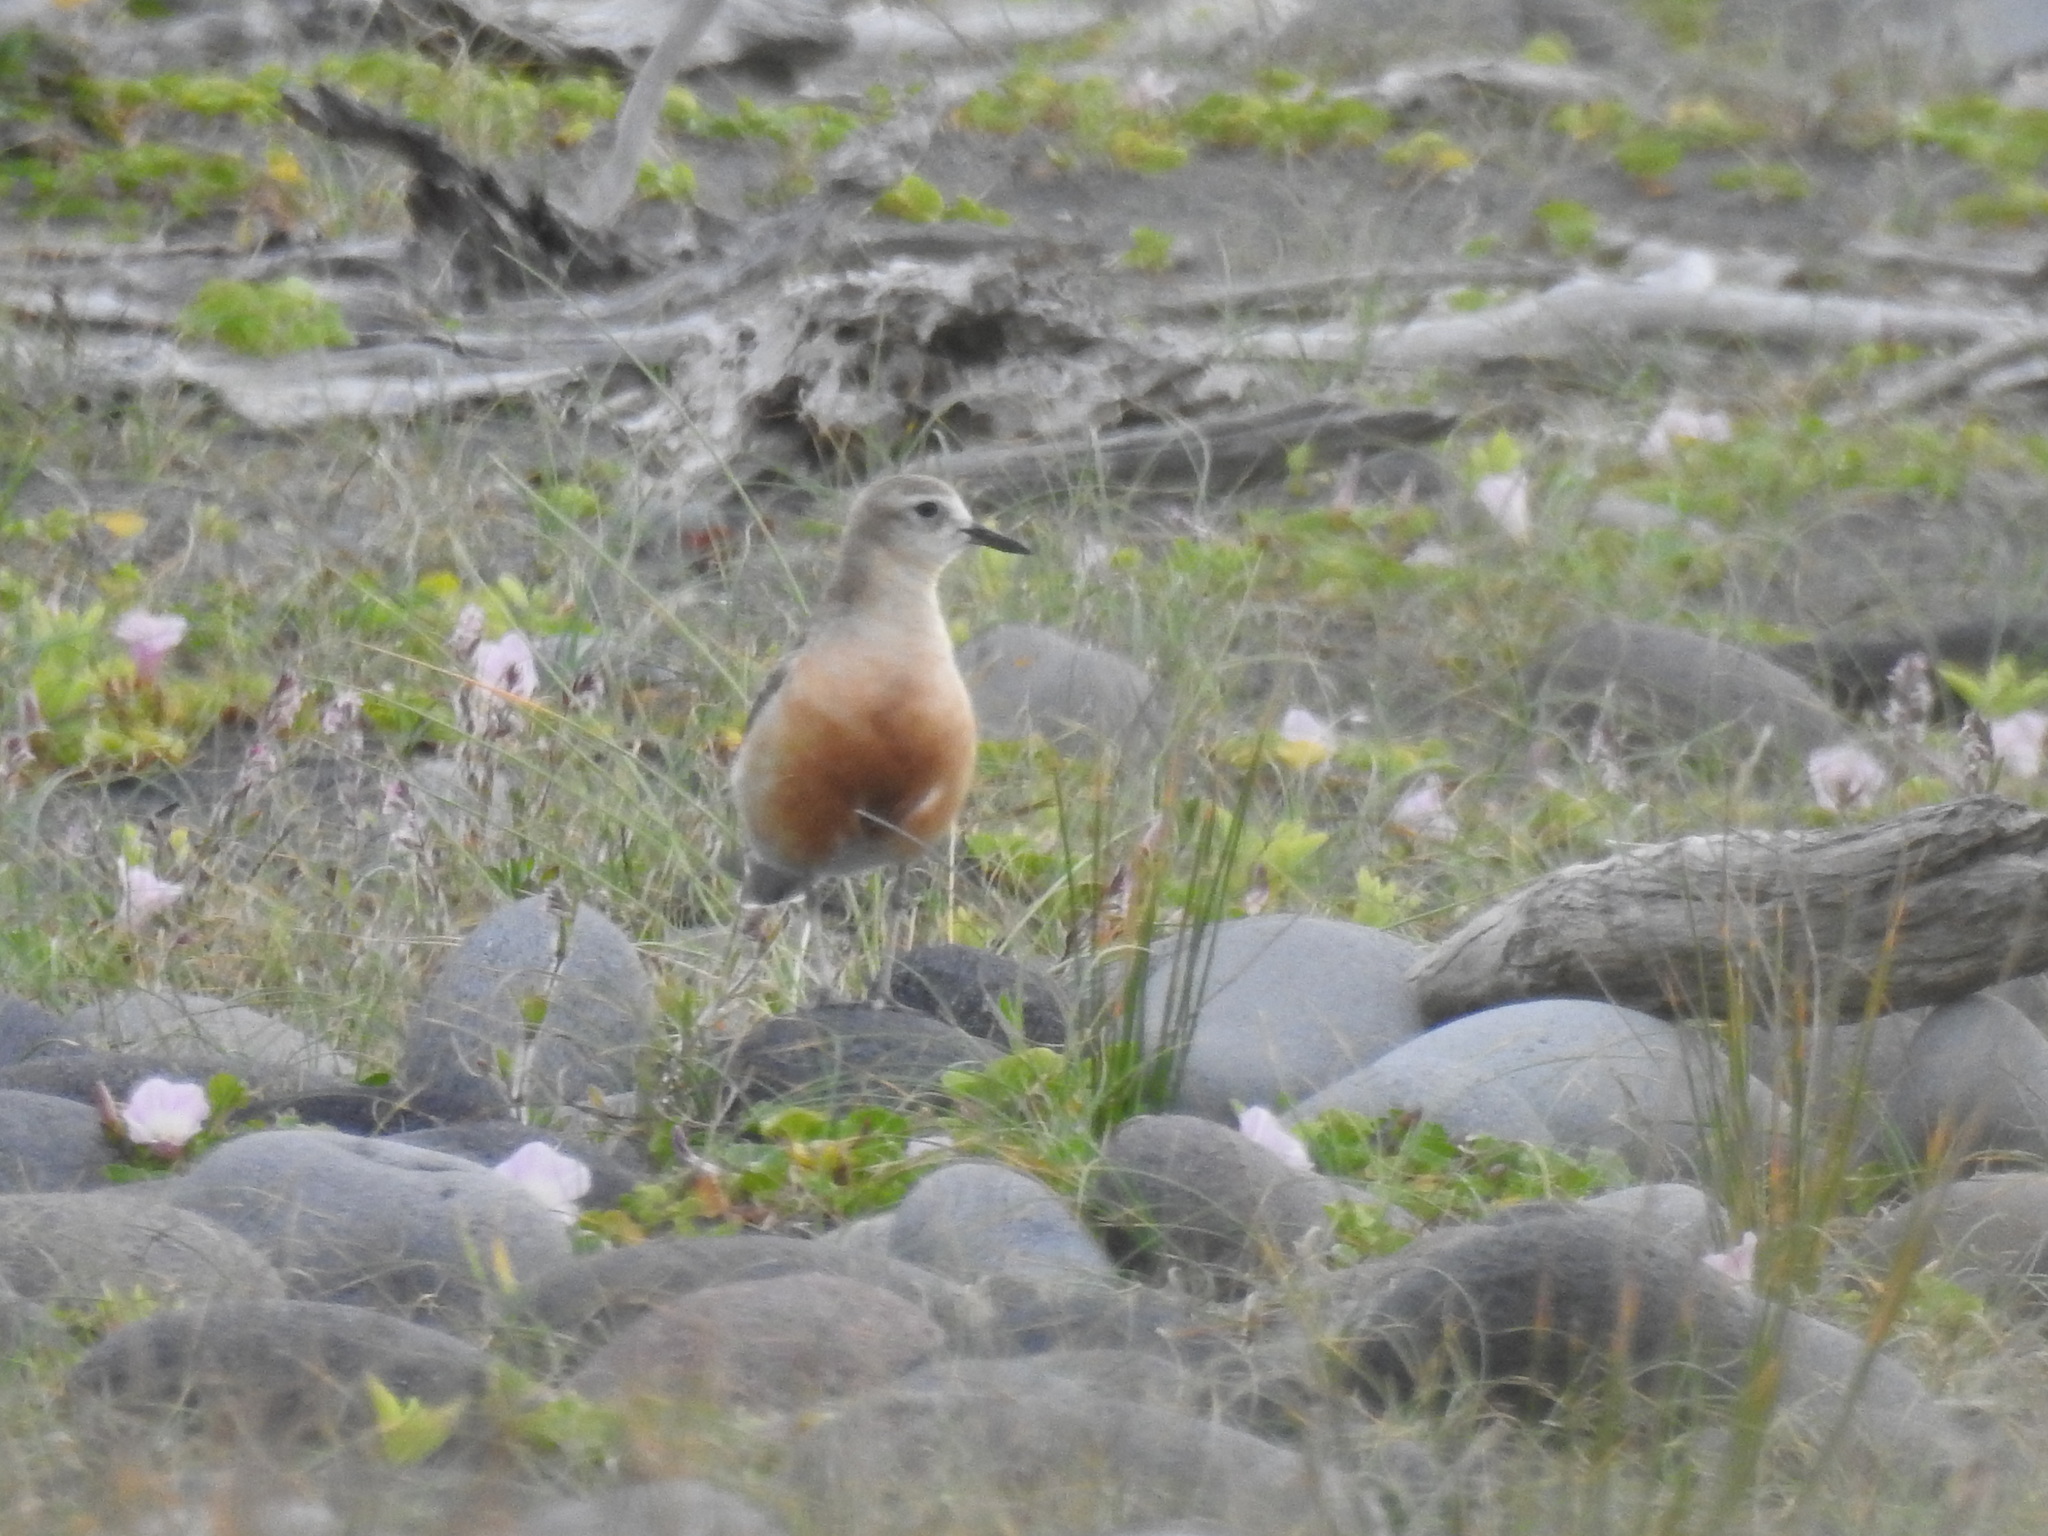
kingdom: Animalia
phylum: Chordata
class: Aves
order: Charadriiformes
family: Charadriidae
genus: Anarhynchus
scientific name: Anarhynchus
